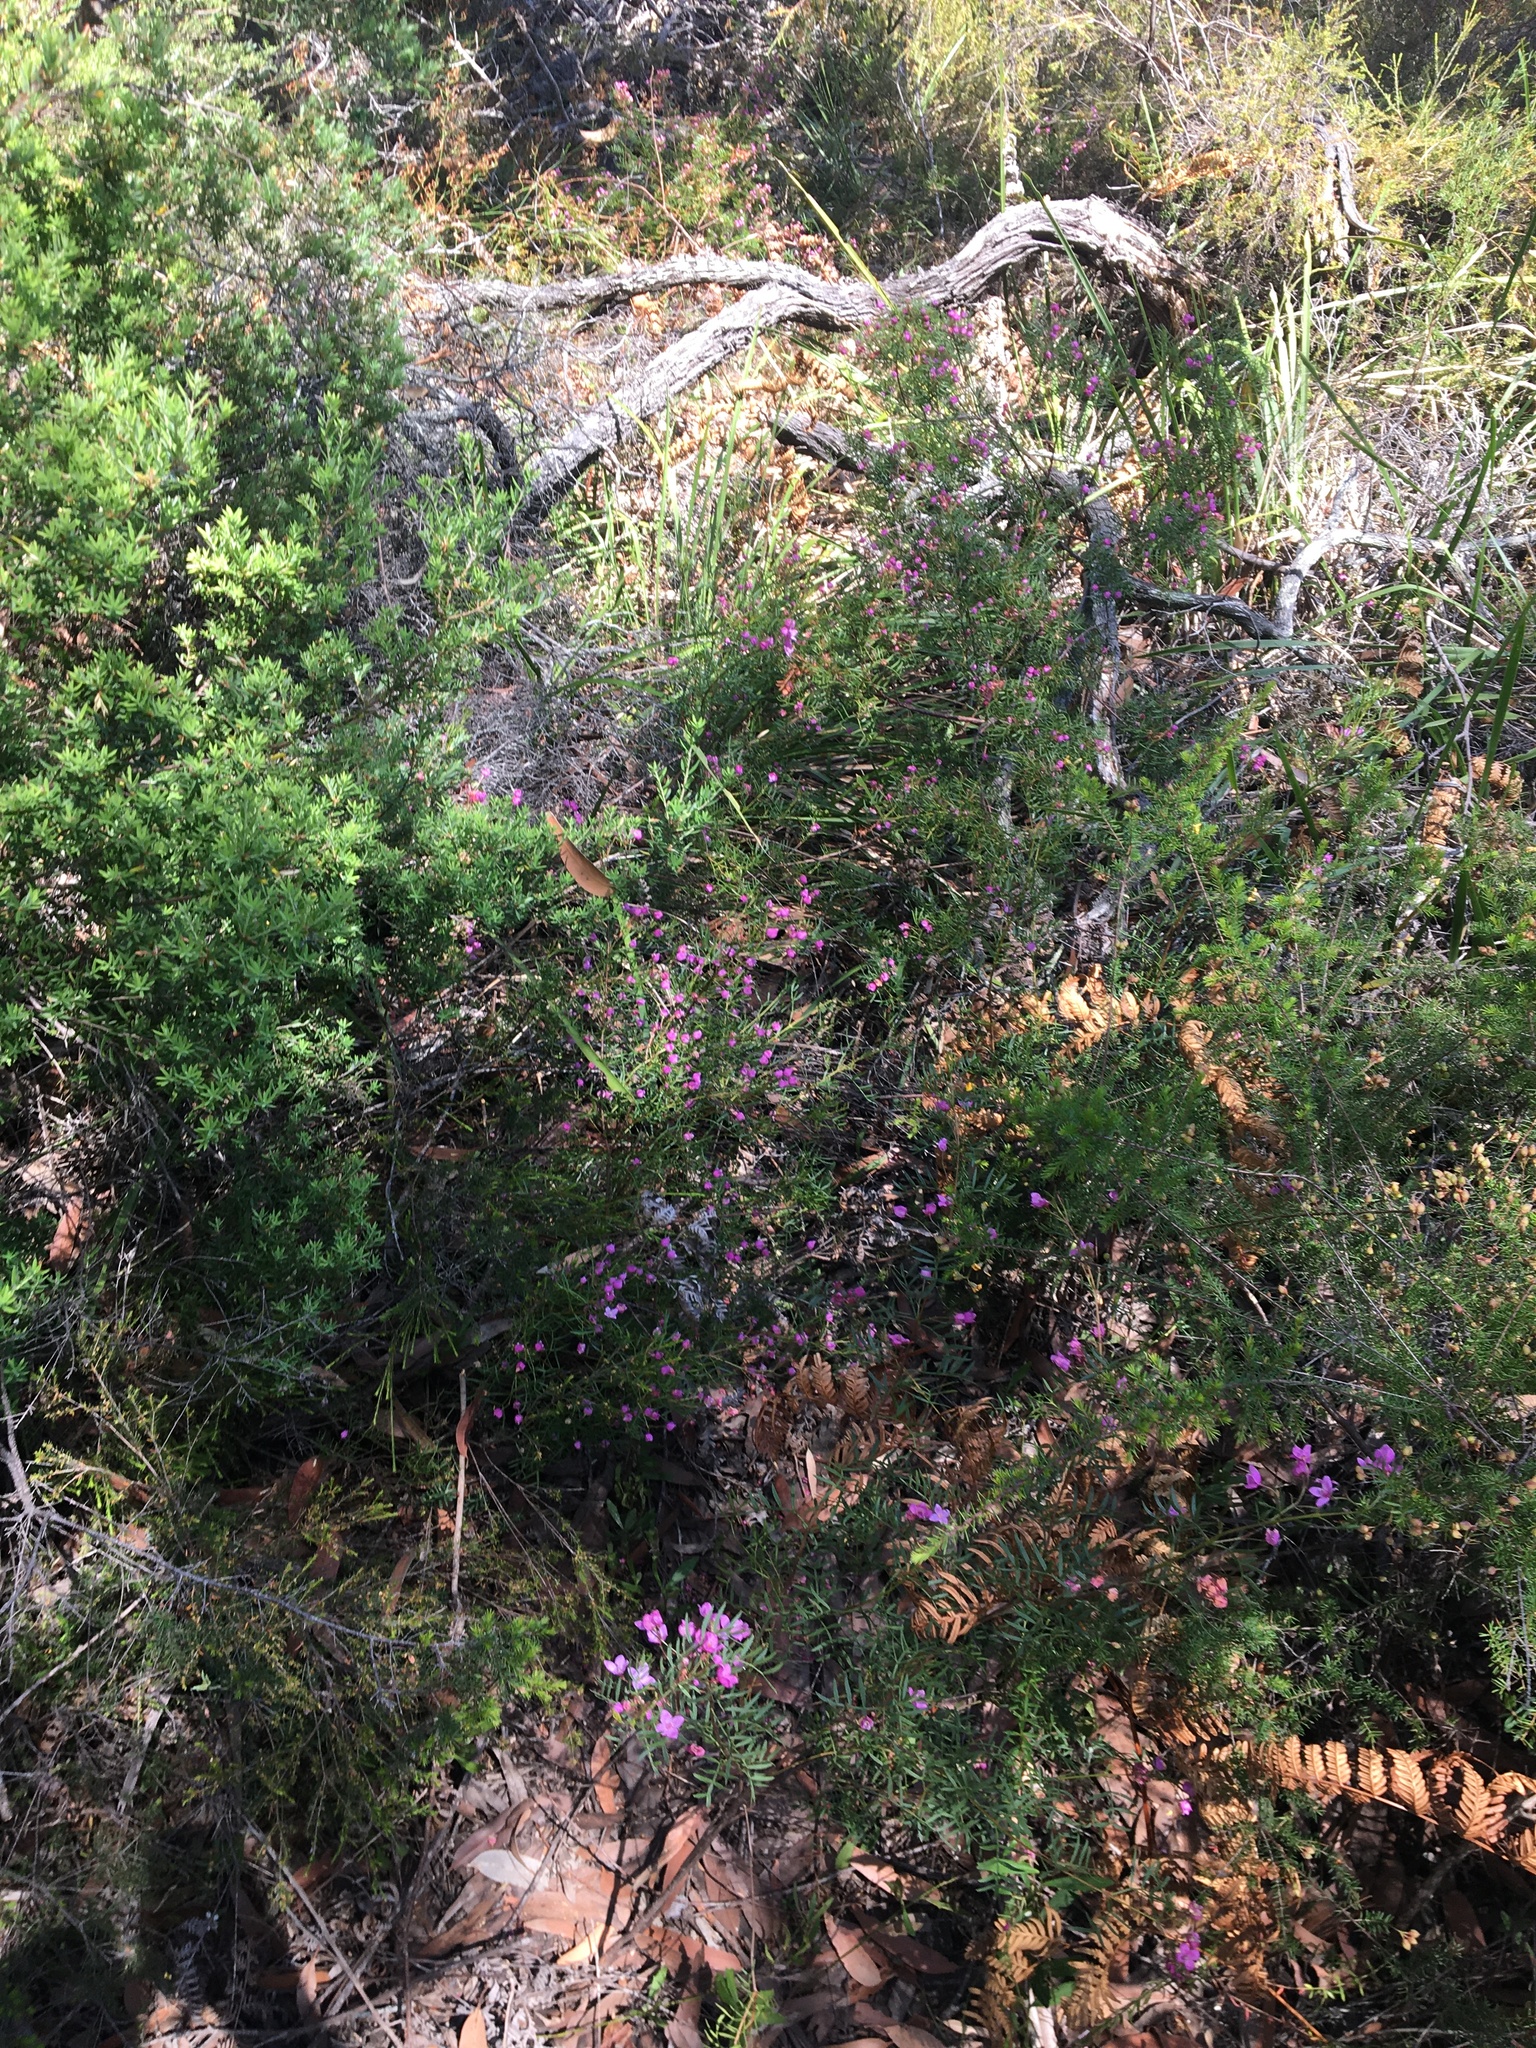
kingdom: Plantae
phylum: Tracheophyta
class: Magnoliopsida
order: Sapindales
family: Rutaceae
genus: Boronia
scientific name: Boronia pinnata
